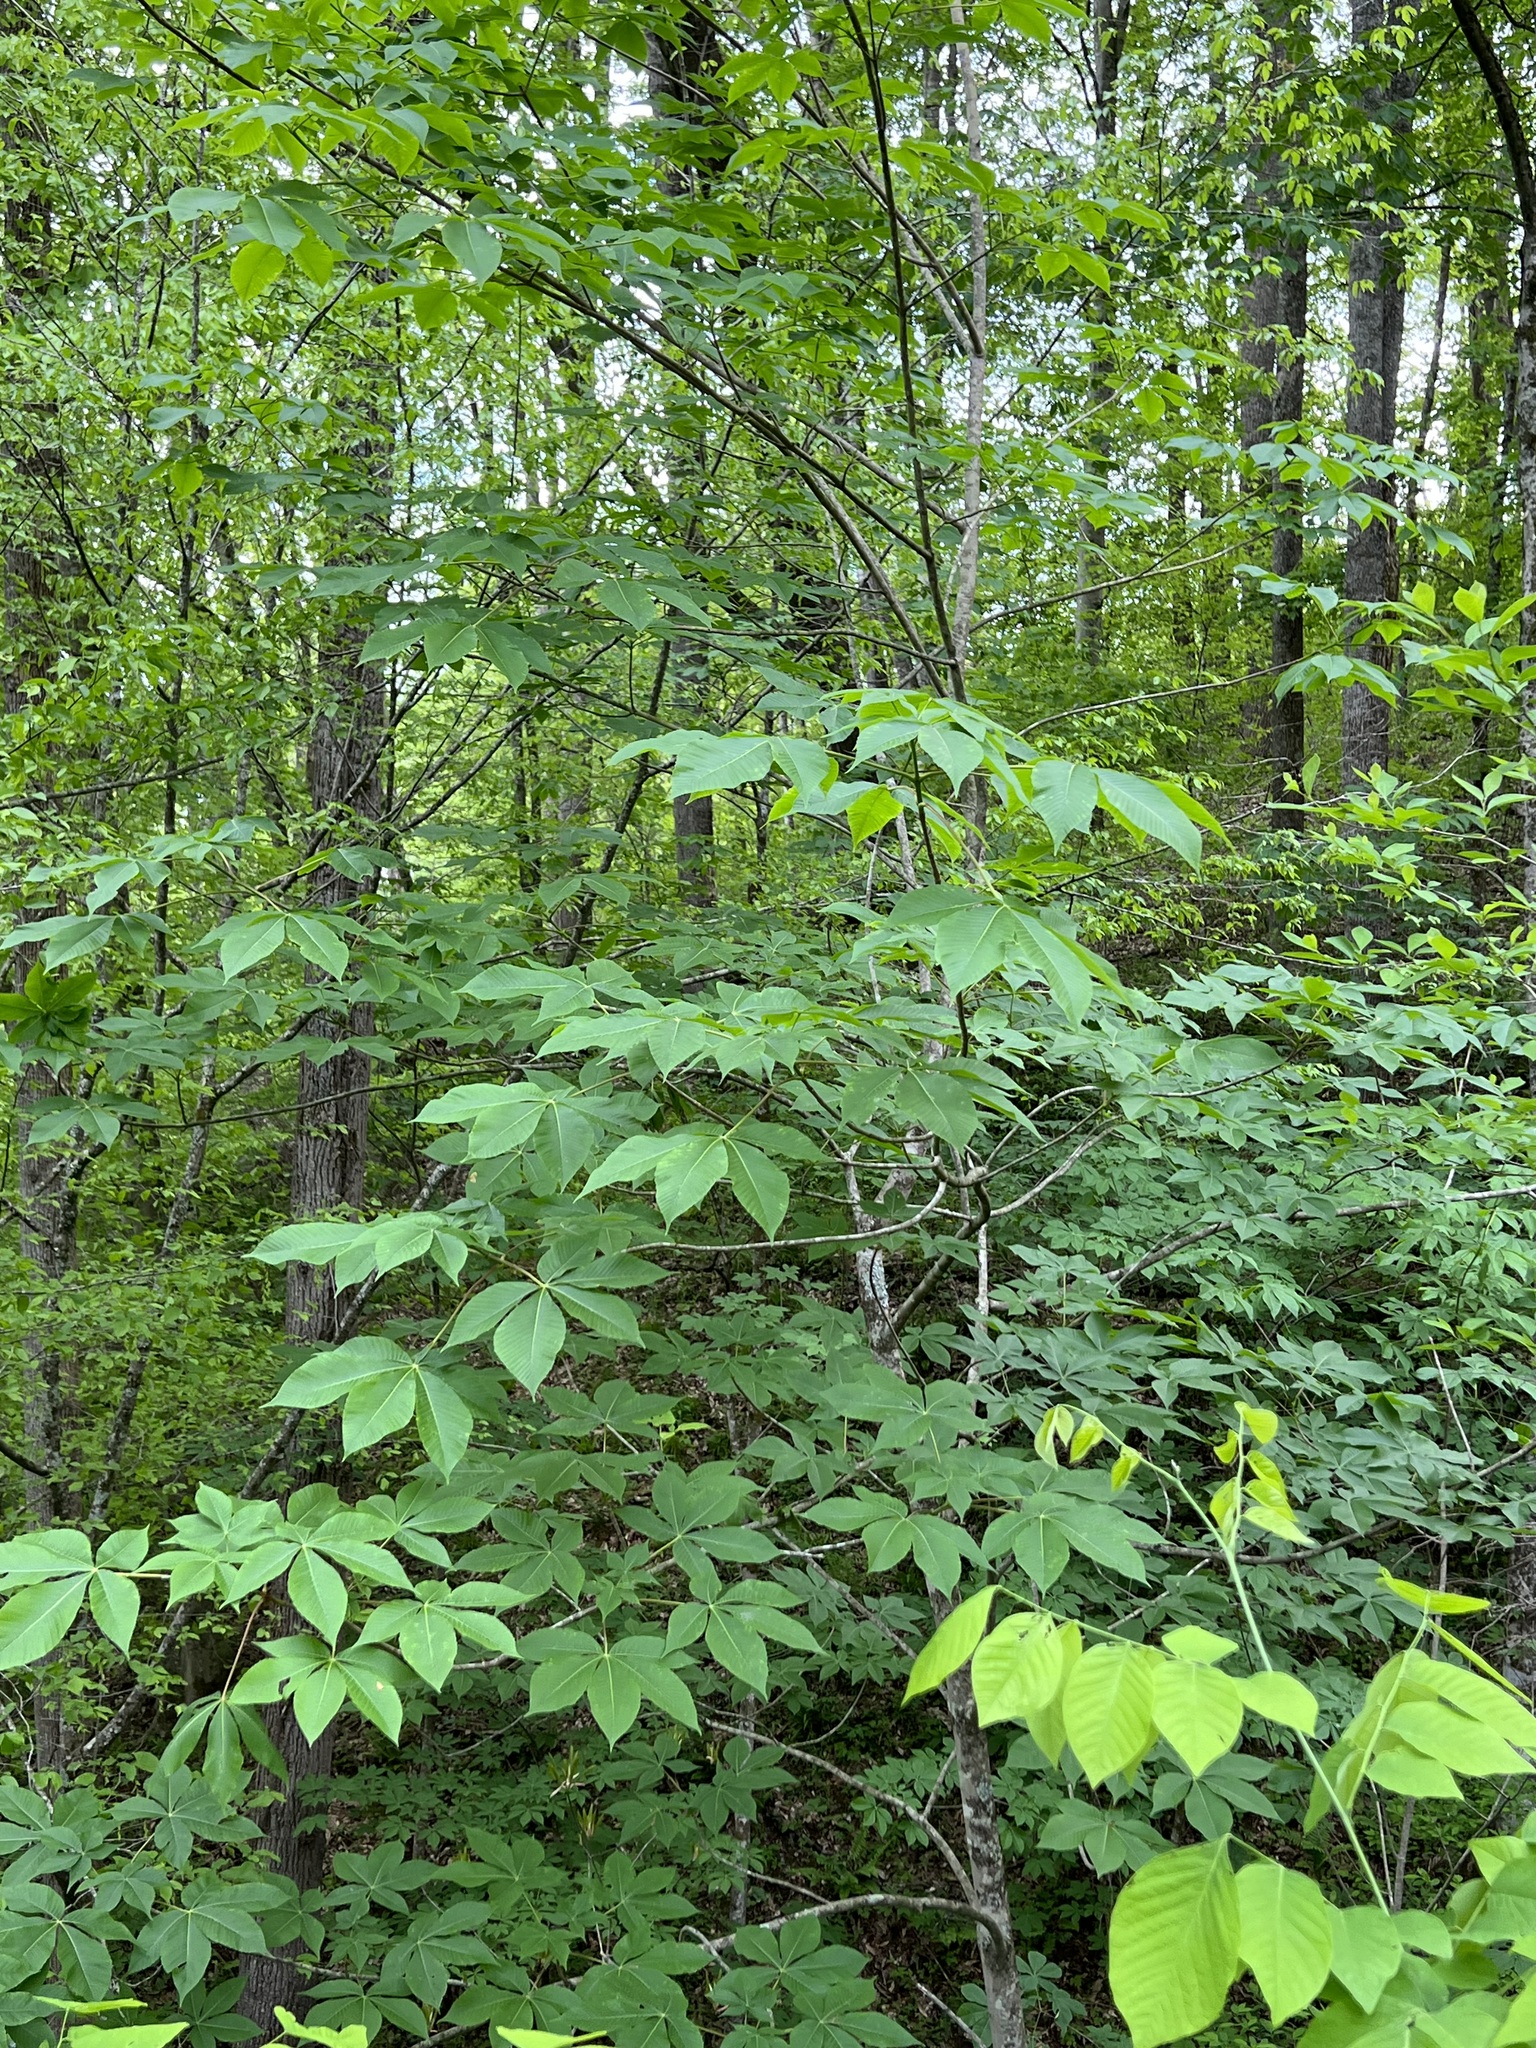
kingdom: Plantae
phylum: Tracheophyta
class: Magnoliopsida
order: Sapindales
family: Sapindaceae
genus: Aesculus
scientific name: Aesculus flava
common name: Yellow buckeye
